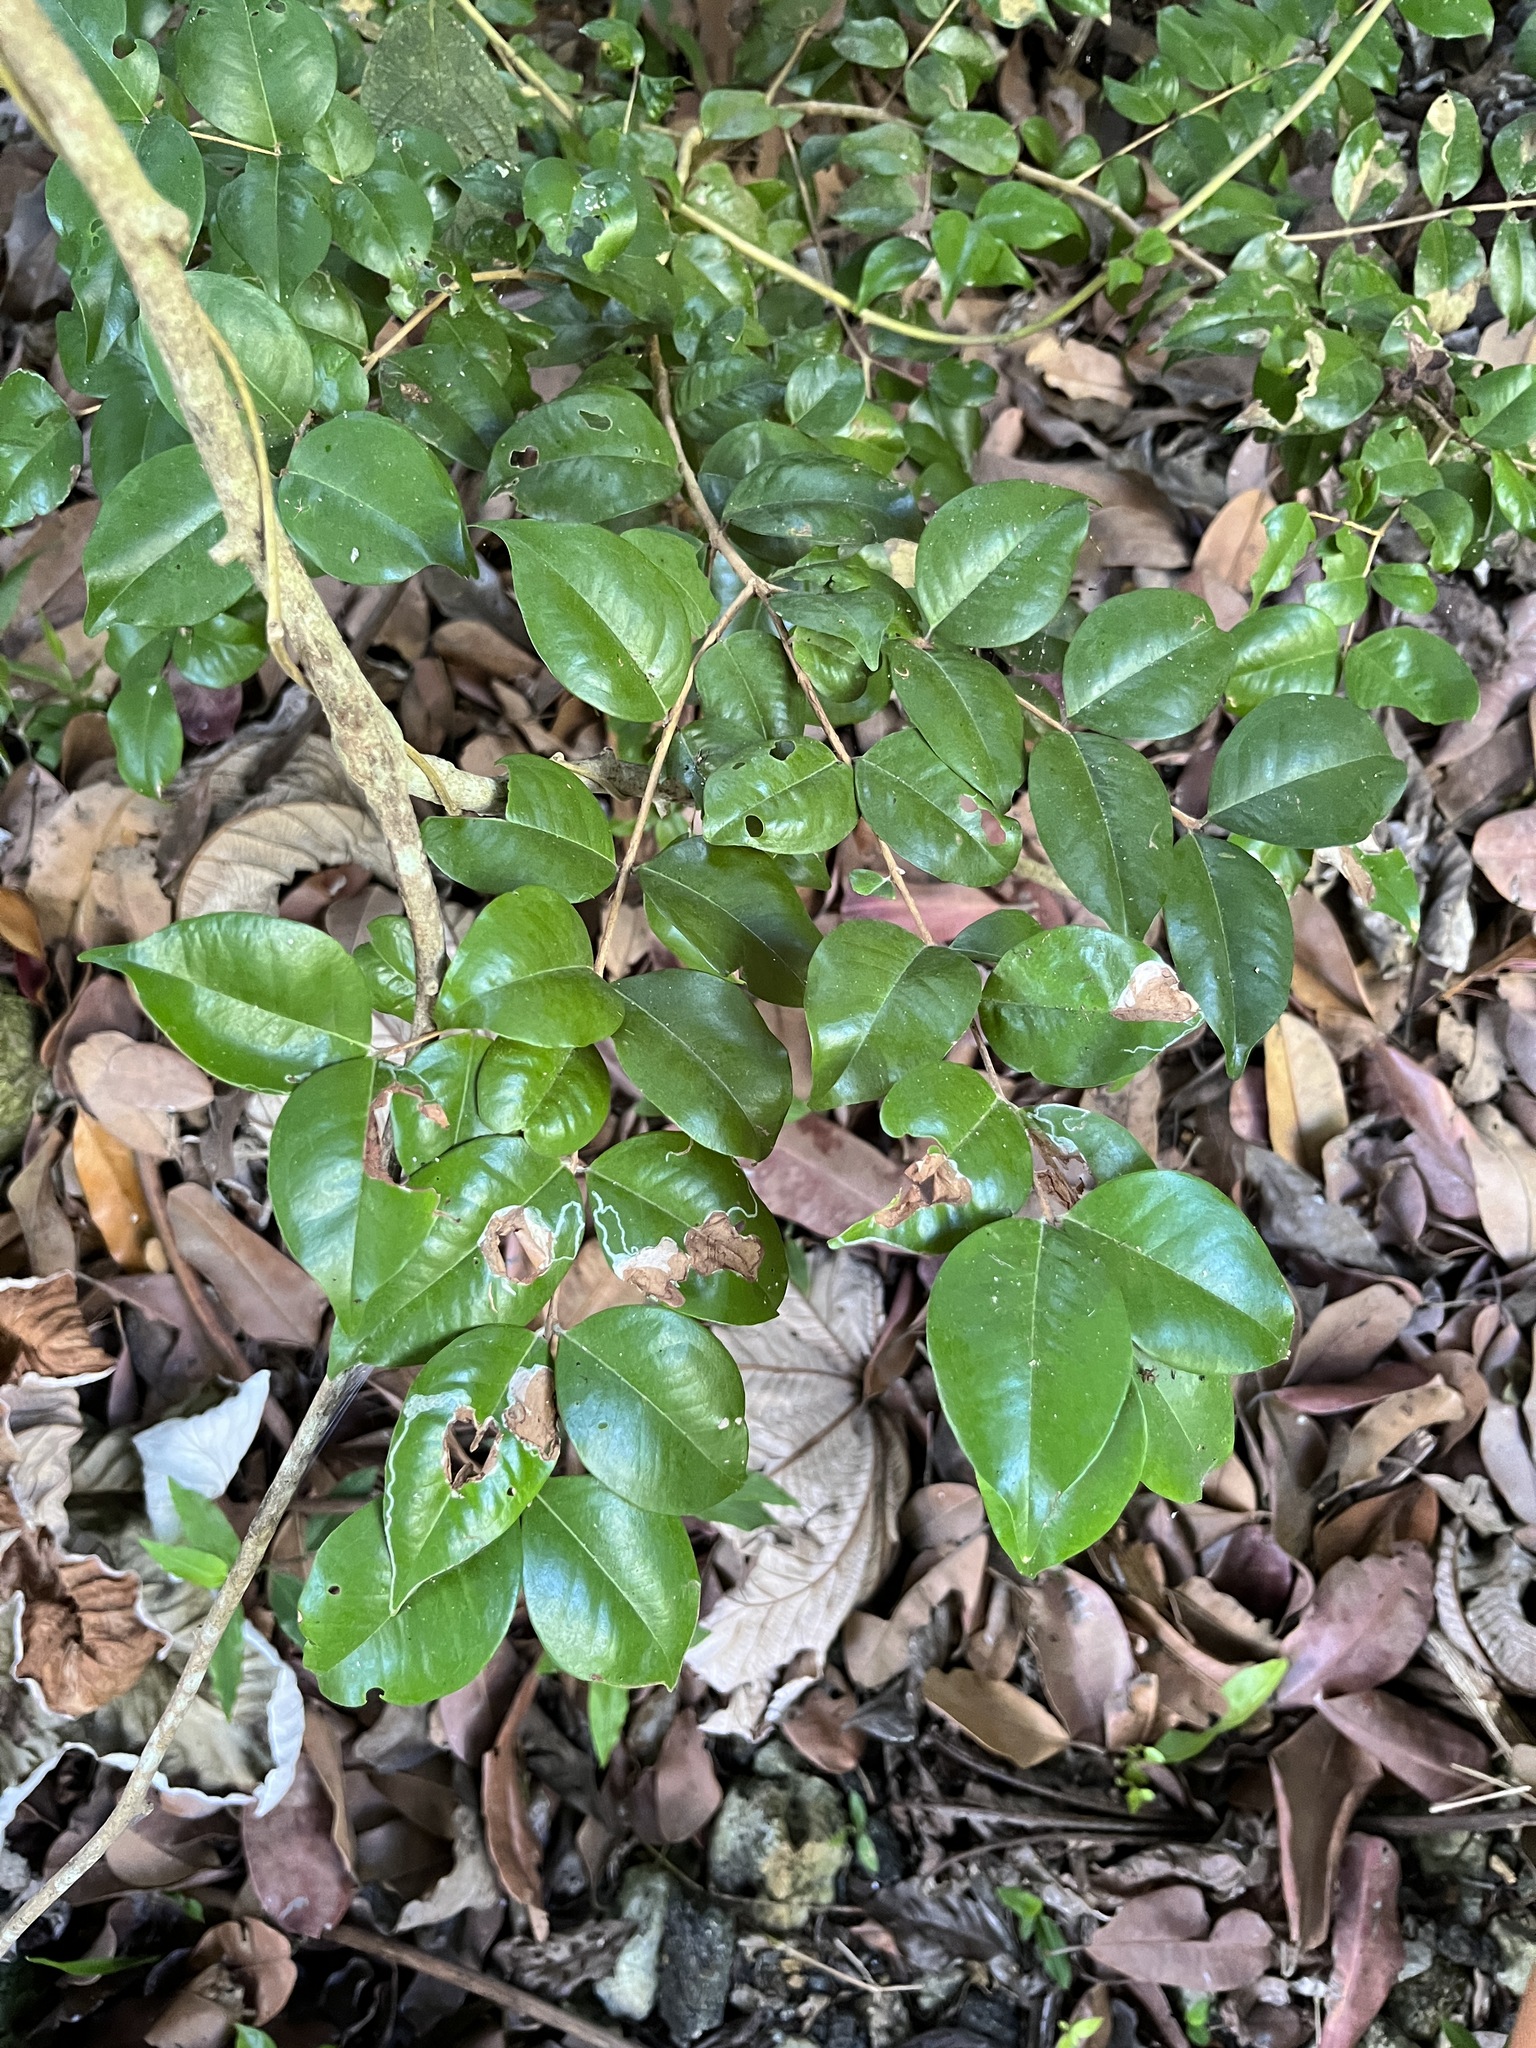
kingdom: Plantae
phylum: Tracheophyta
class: Magnoliopsida
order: Myrtales
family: Myrtaceae
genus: Eugenia
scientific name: Eugenia biflora
